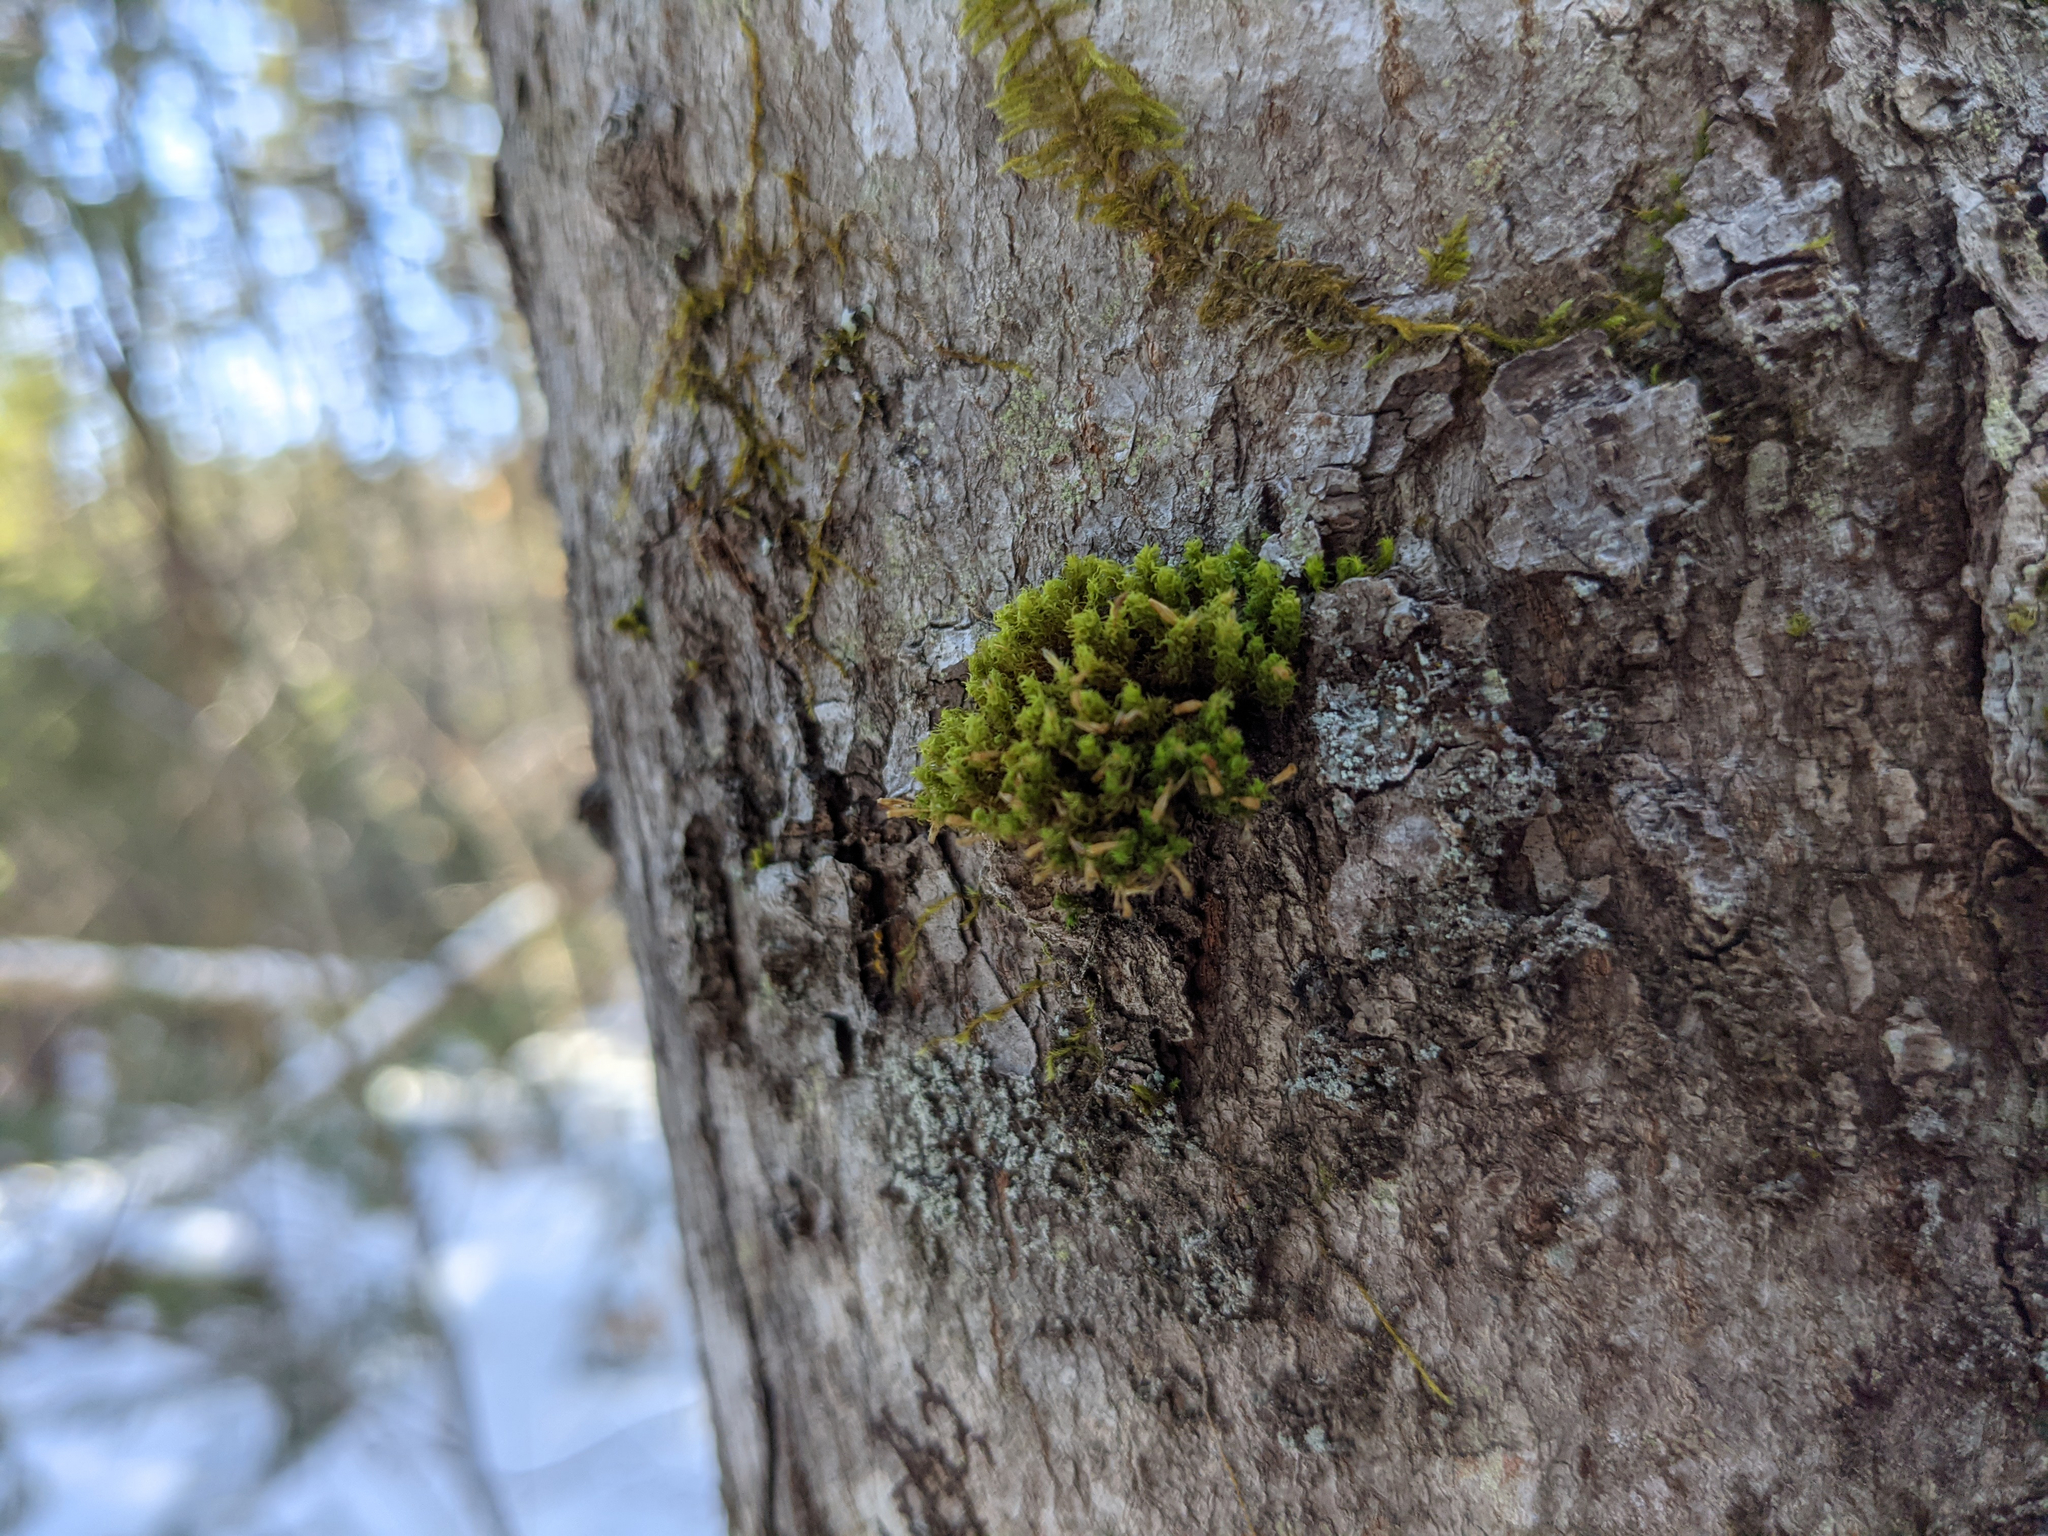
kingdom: Plantae
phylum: Bryophyta
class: Bryopsida
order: Orthotrichales
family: Orthotrichaceae
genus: Ulota
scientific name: Ulota crispa
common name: Crisped pincushion moss
